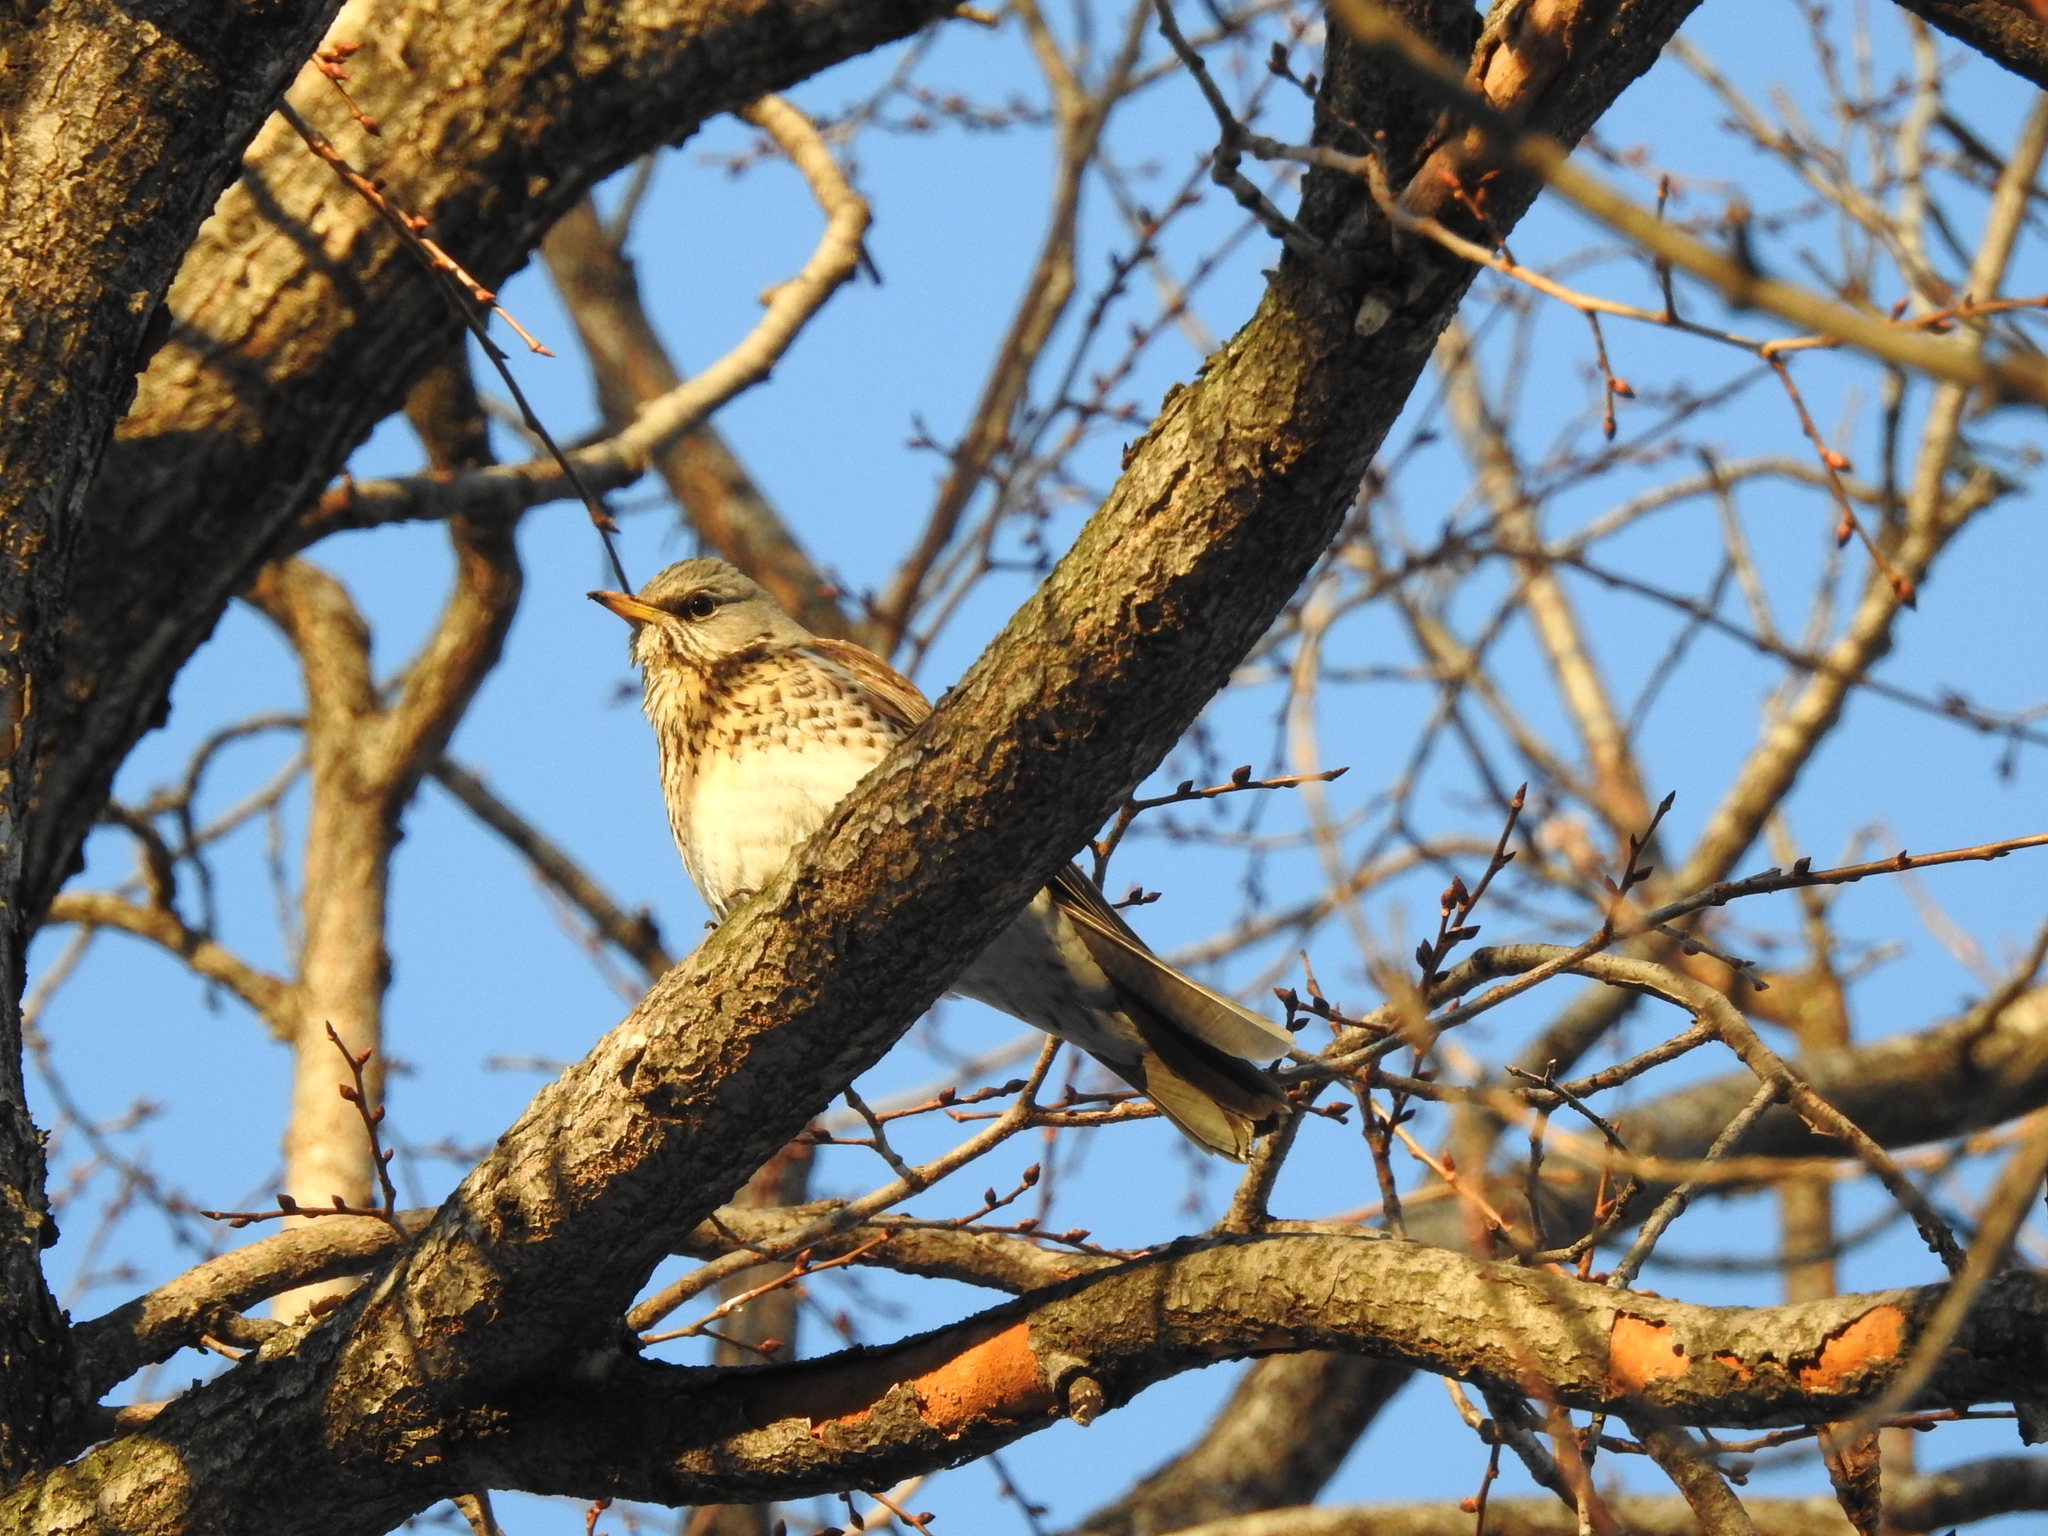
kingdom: Animalia
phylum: Chordata
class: Aves
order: Passeriformes
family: Turdidae
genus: Turdus
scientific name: Turdus pilaris
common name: Fieldfare
